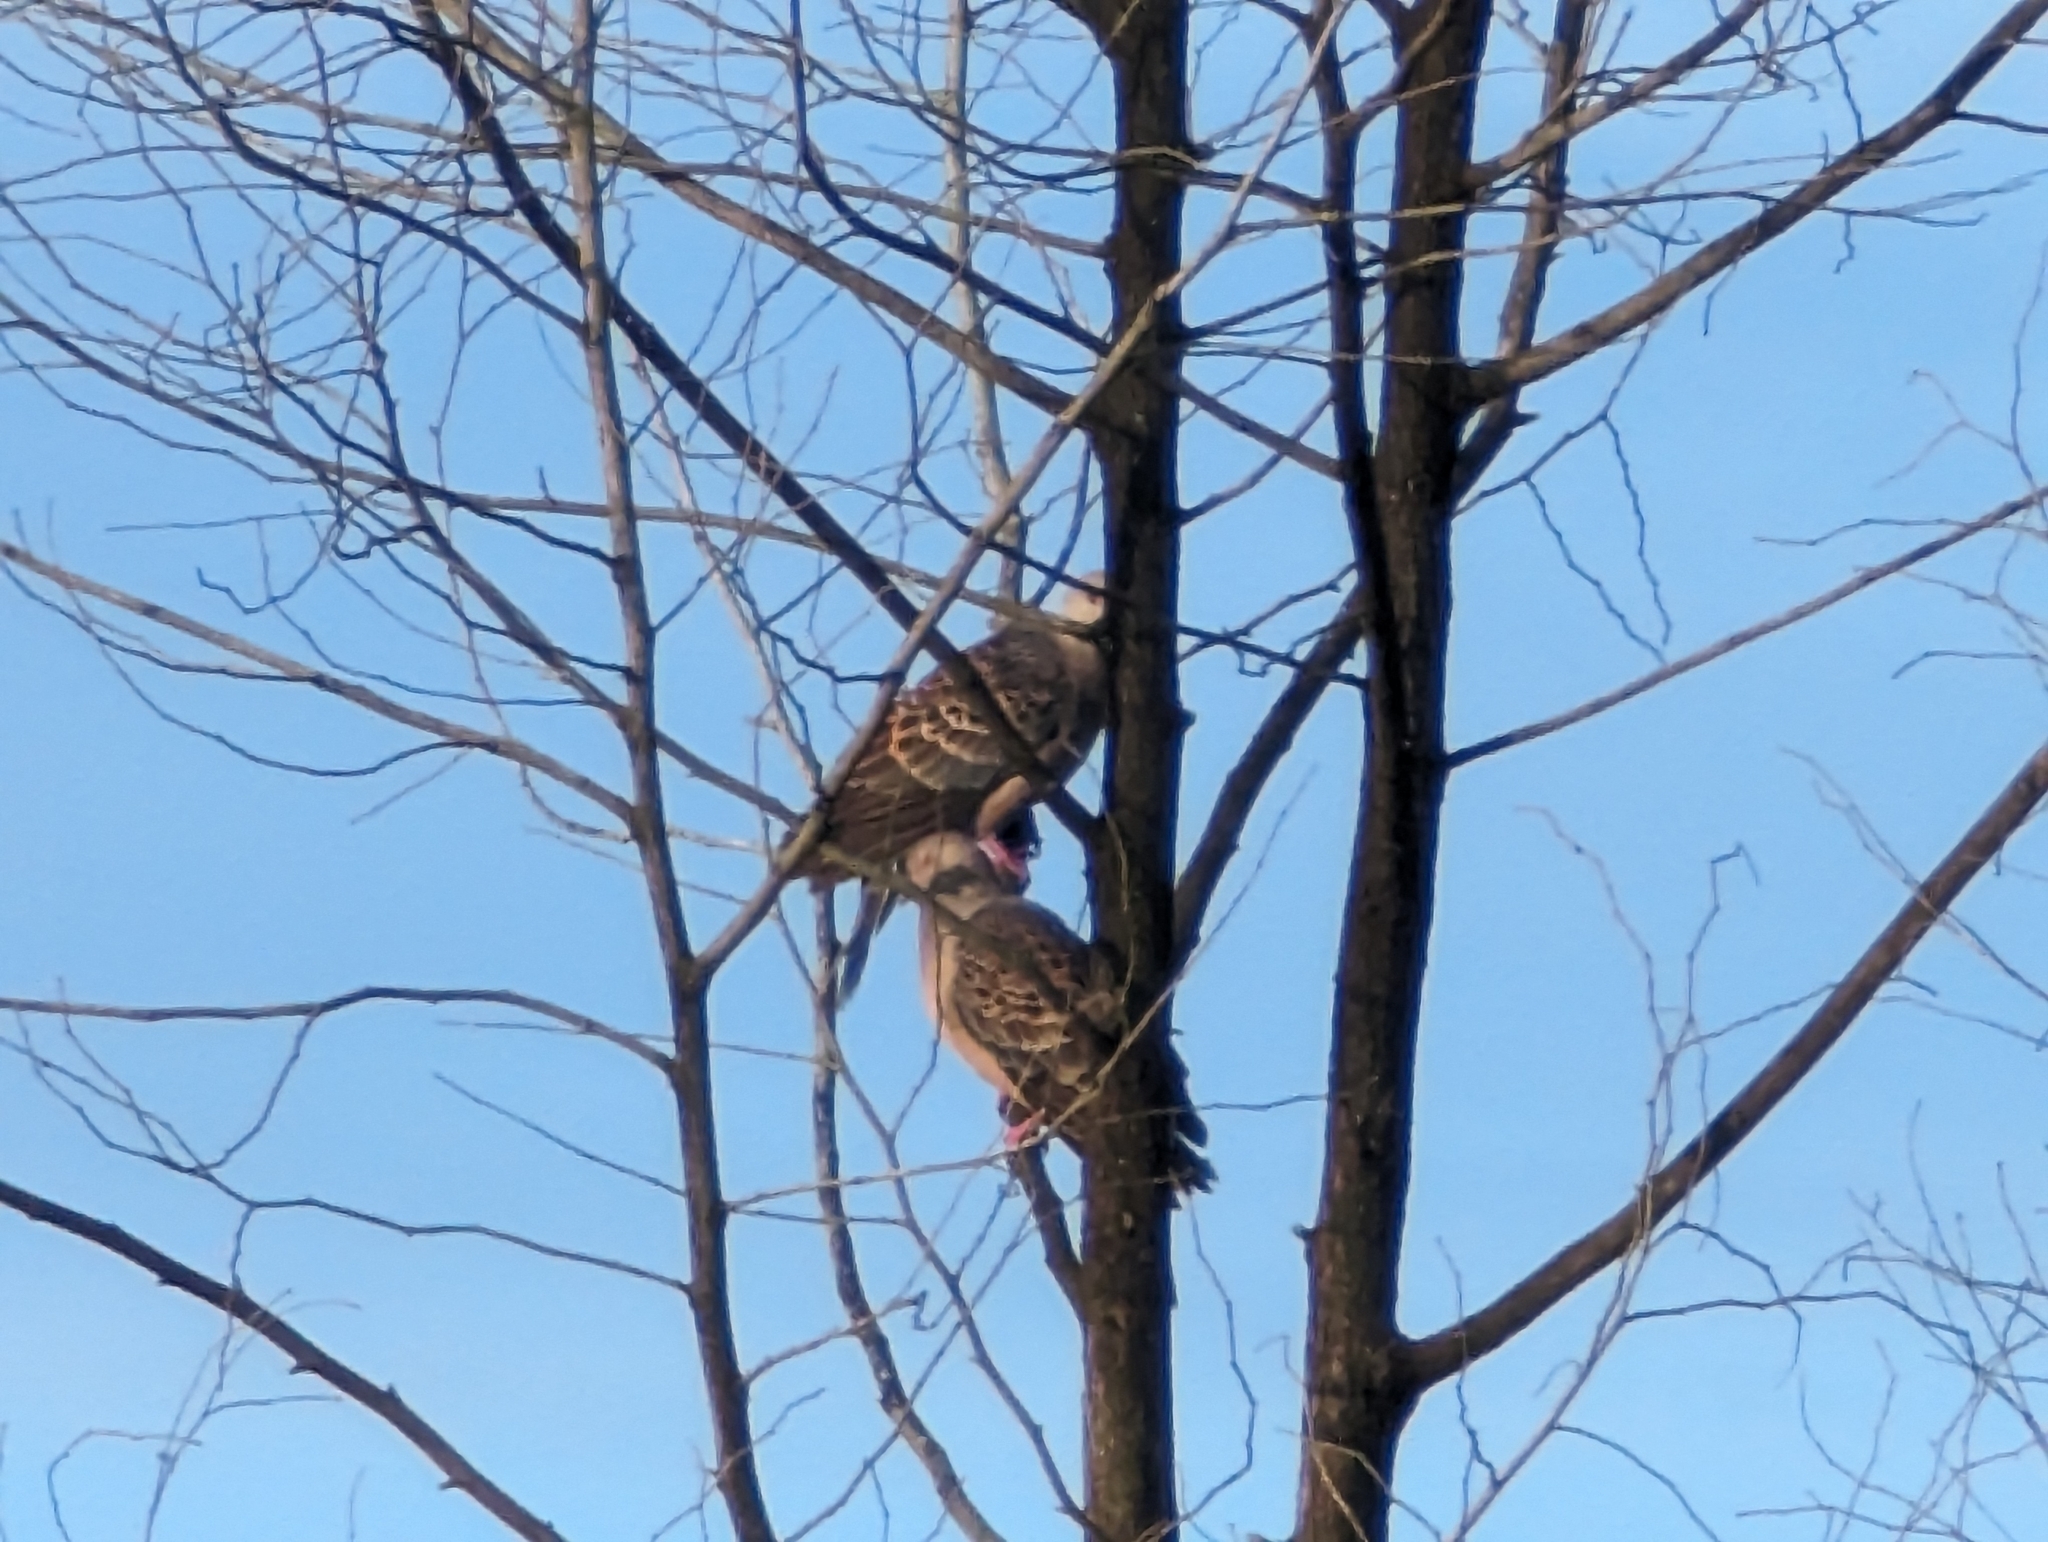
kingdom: Animalia
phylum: Chordata
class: Aves
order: Columbiformes
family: Columbidae
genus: Streptopelia
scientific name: Streptopelia orientalis
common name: Oriental turtle dove
